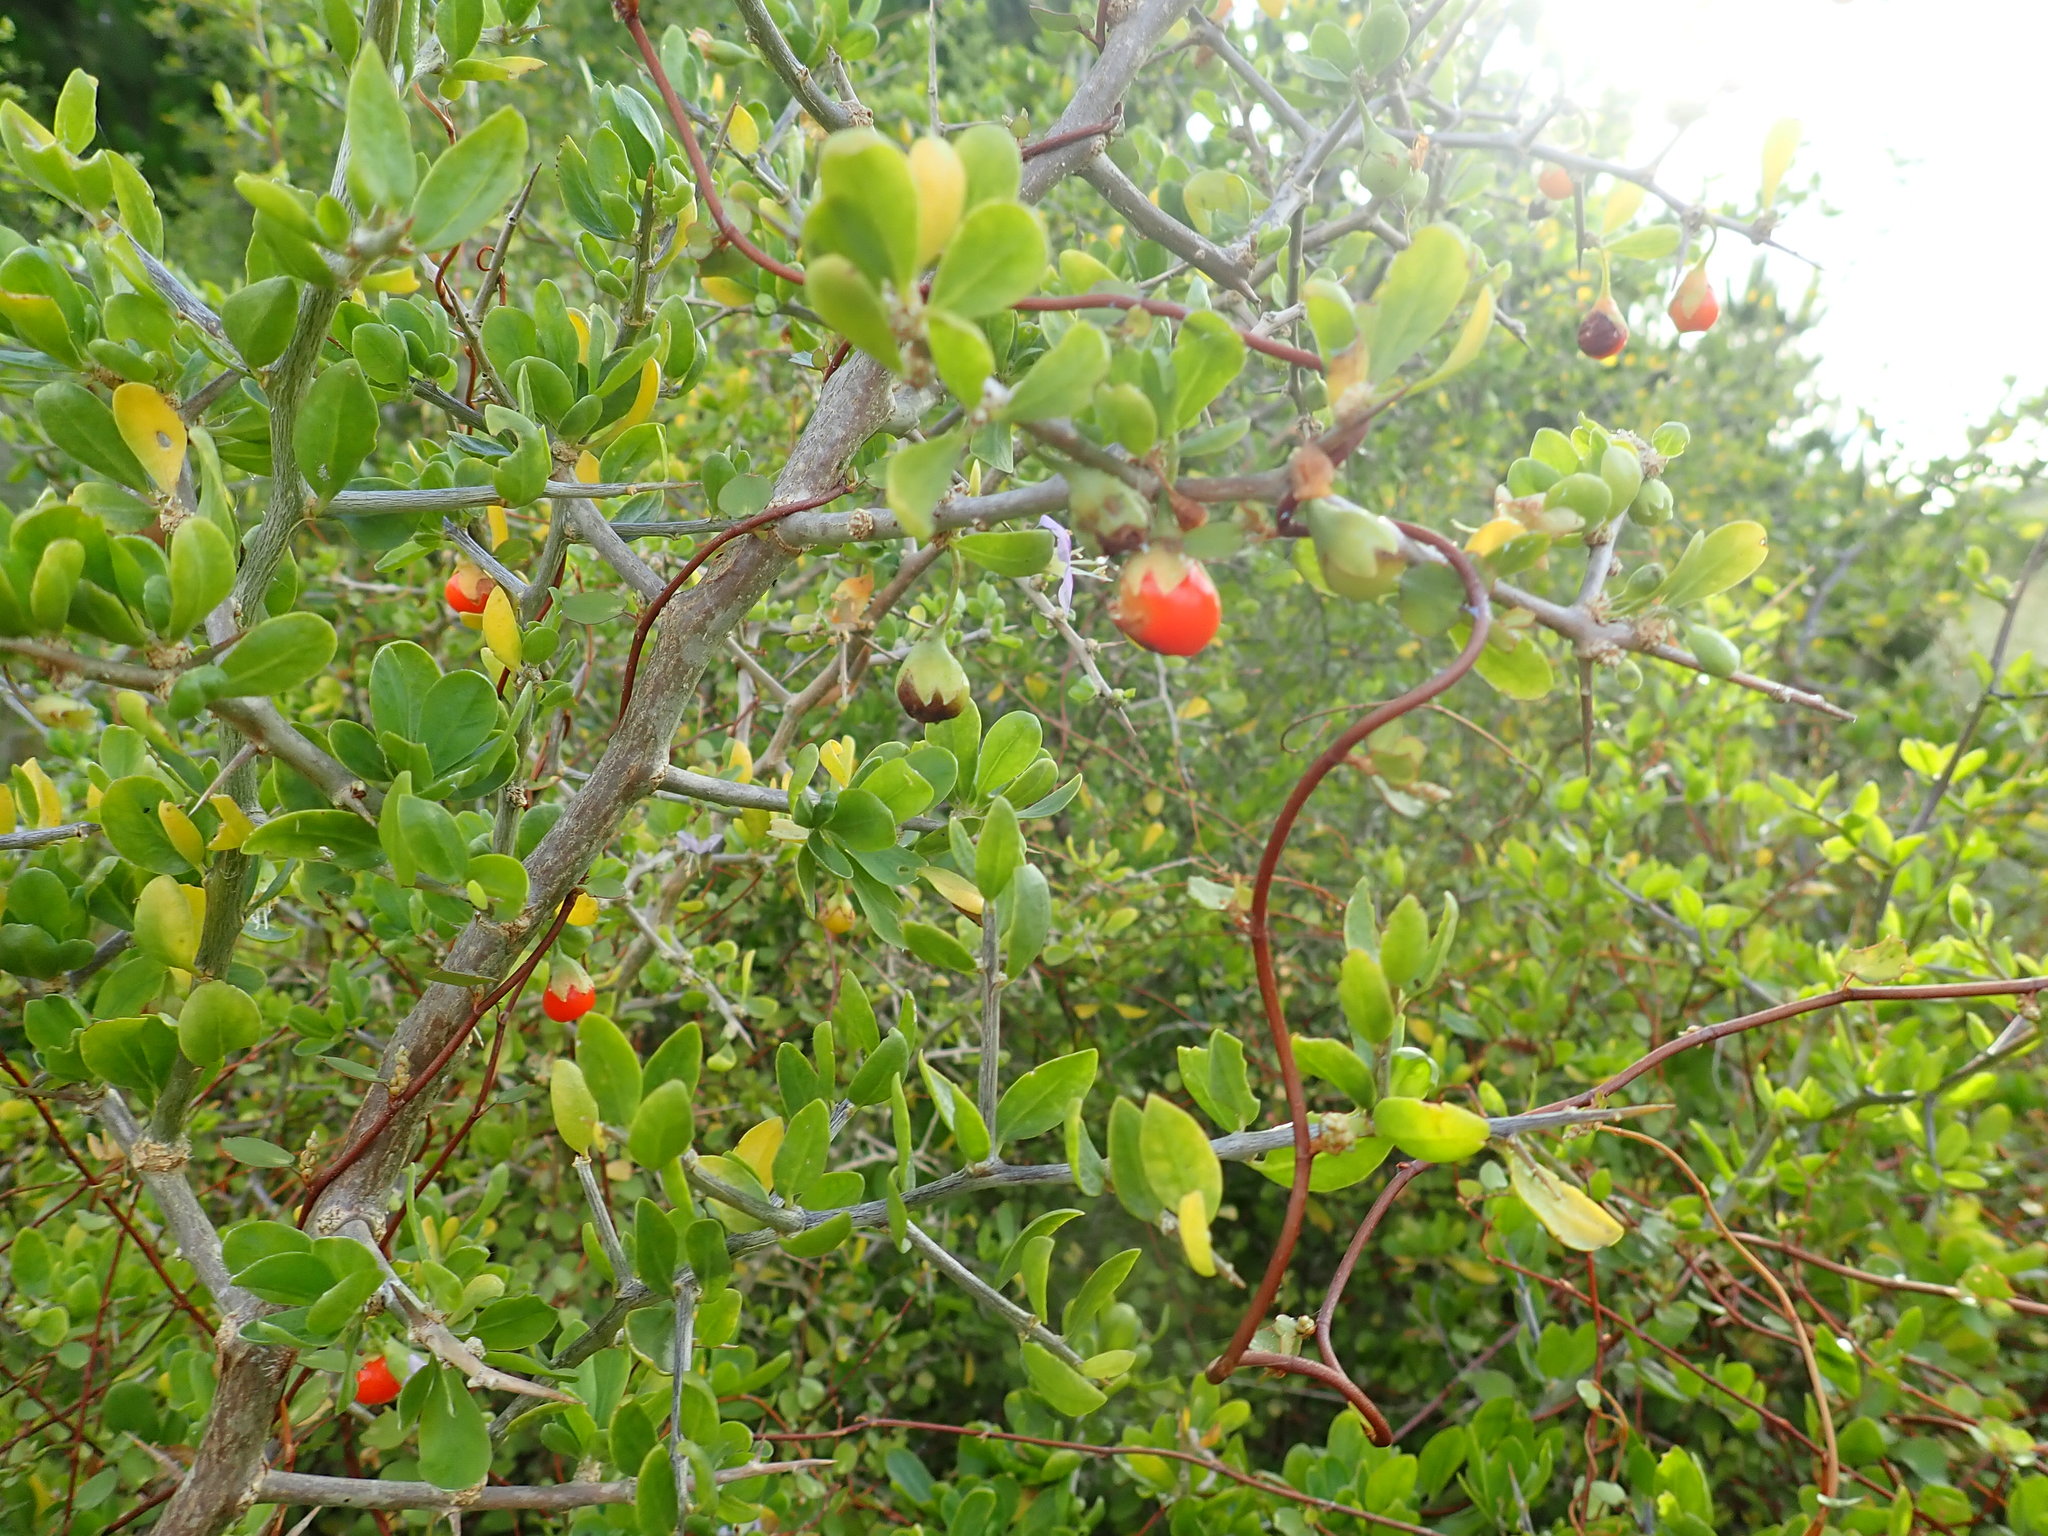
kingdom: Plantae
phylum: Tracheophyta
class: Magnoliopsida
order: Solanales
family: Solanaceae
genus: Lycium
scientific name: Lycium ferocissimum
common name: African boxthorn
